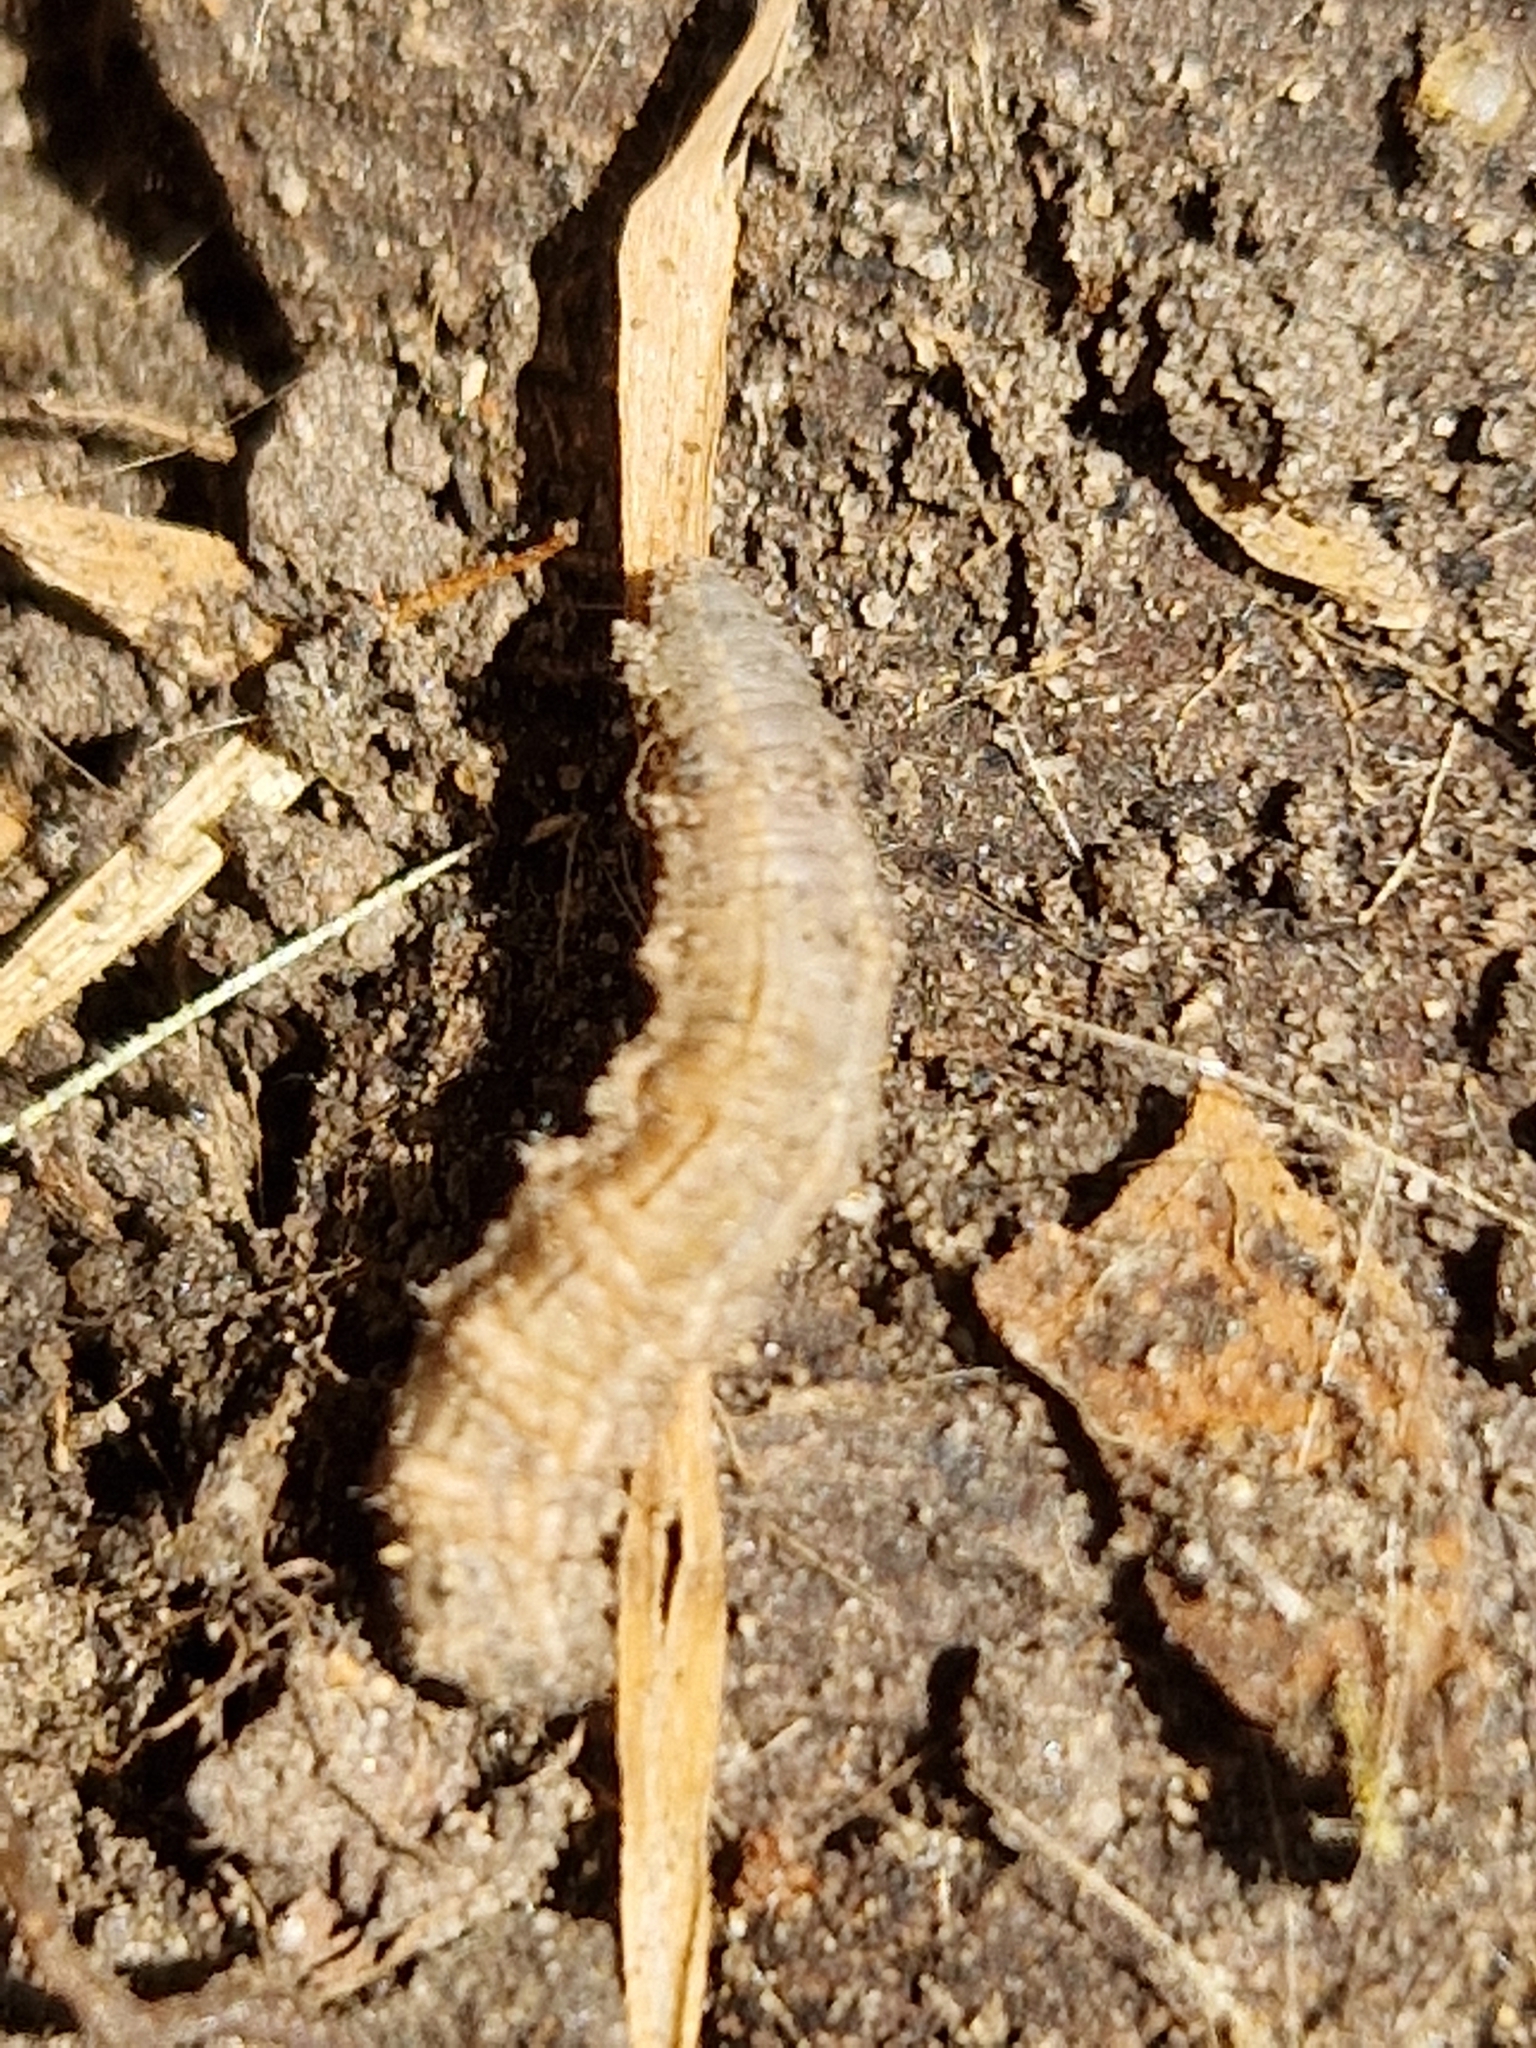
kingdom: Animalia
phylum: Arthropoda
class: Insecta
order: Diptera
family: Syrphidae
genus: Eupeodes
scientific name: Eupeodes
